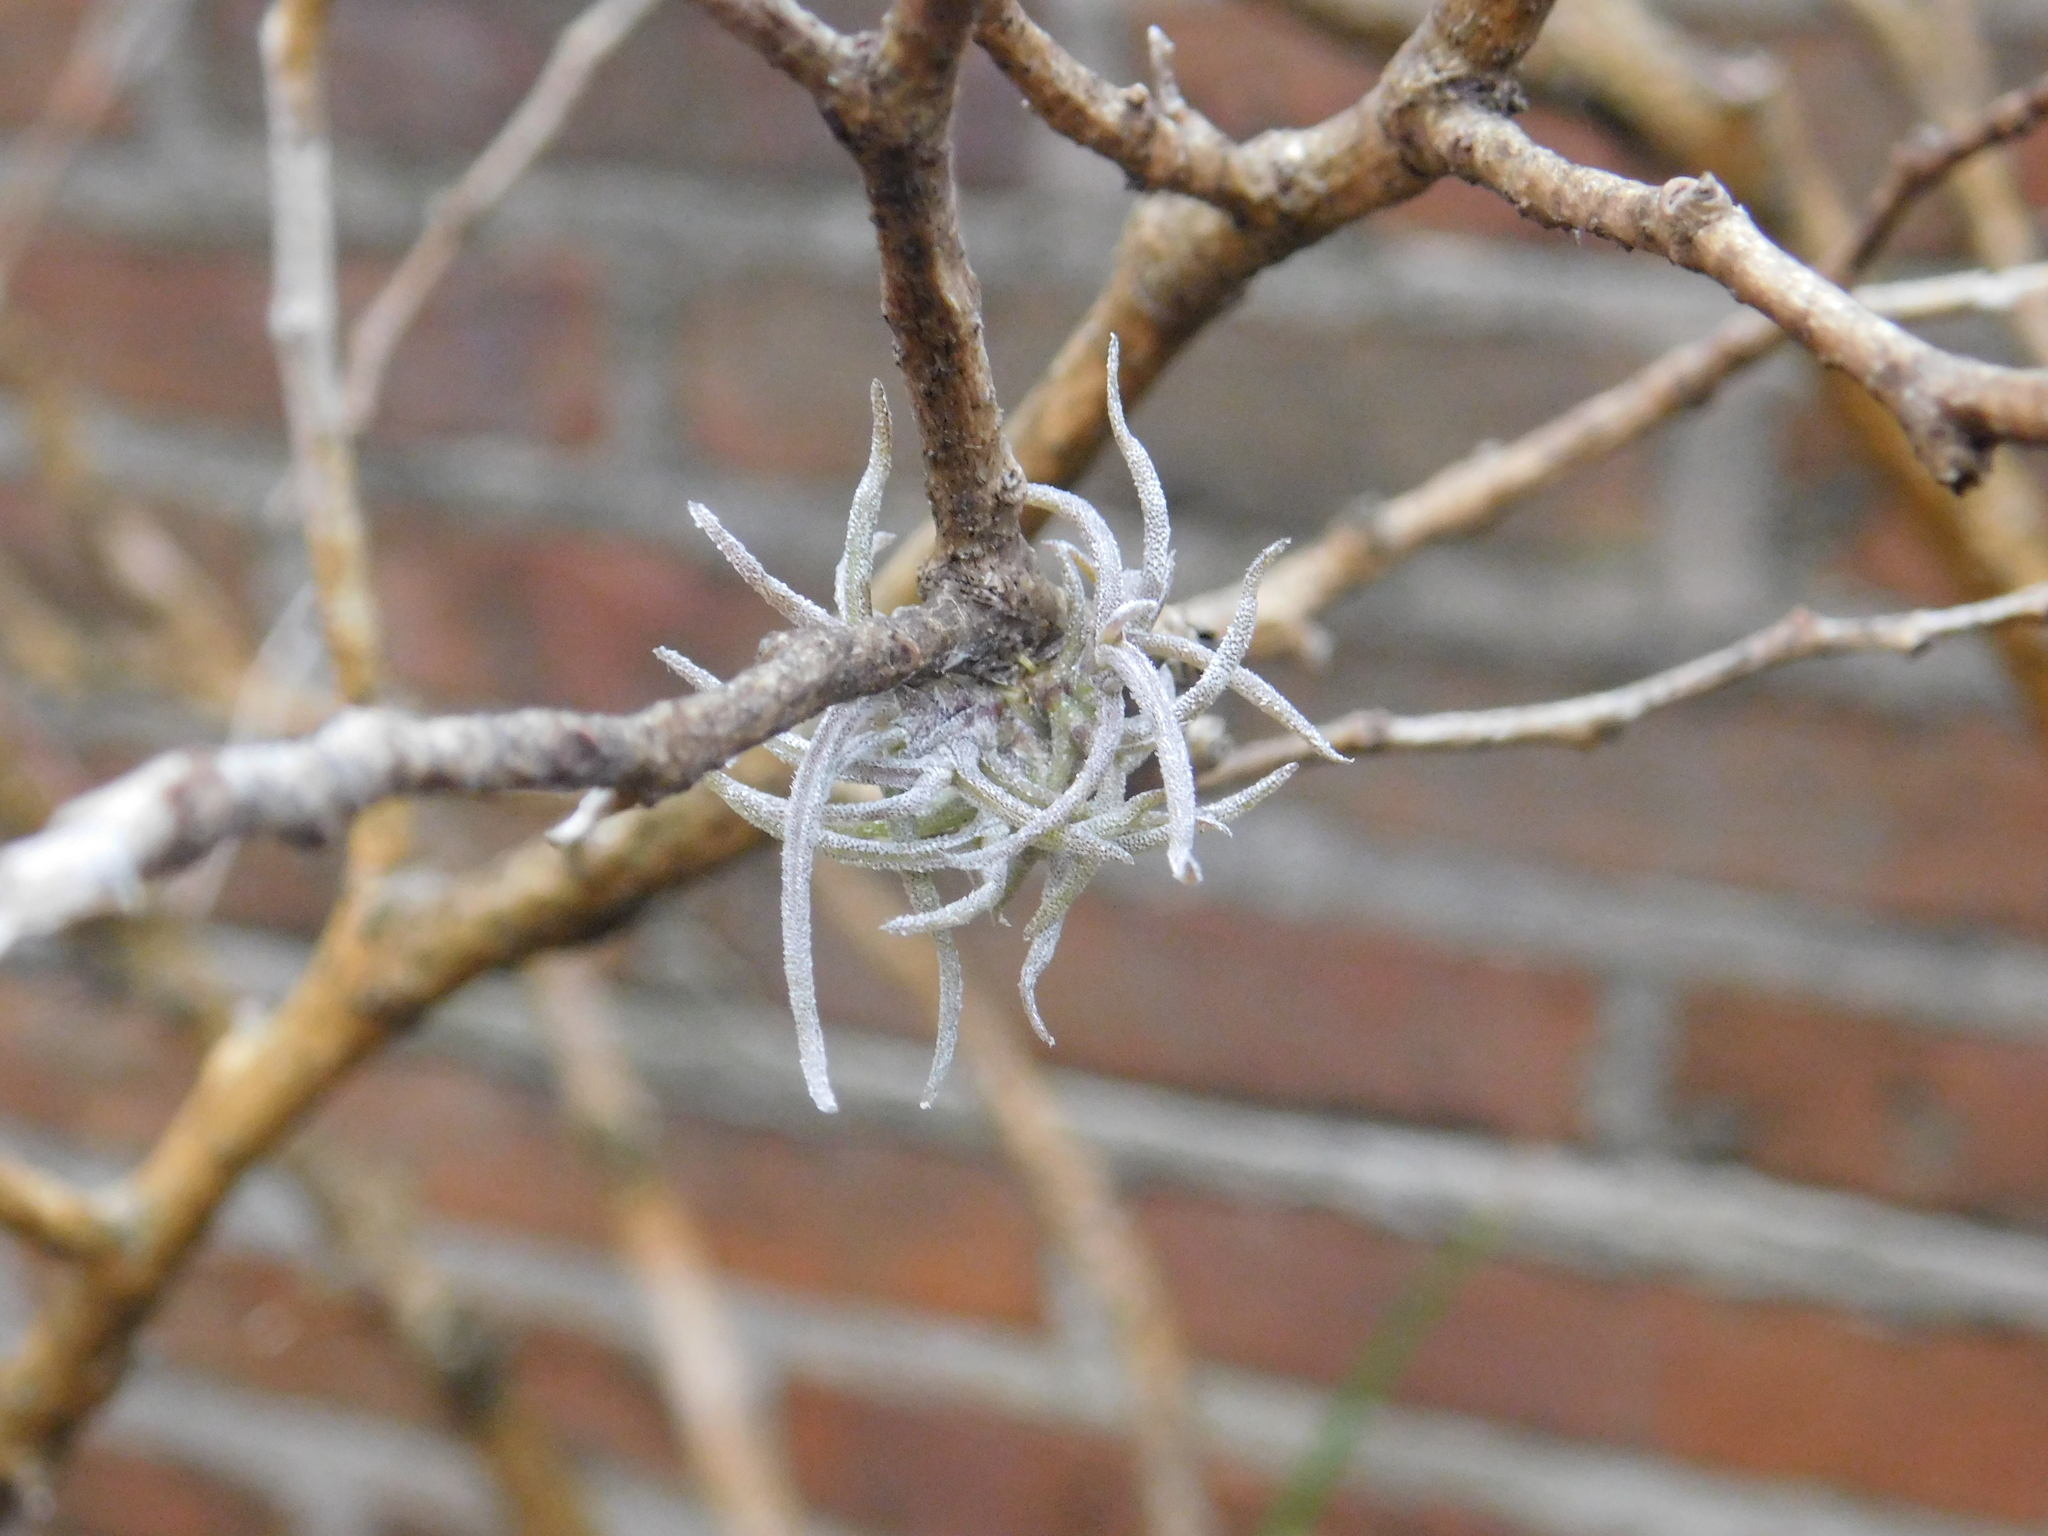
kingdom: Plantae
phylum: Tracheophyta
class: Liliopsida
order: Poales
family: Bromeliaceae
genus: Tillandsia
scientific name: Tillandsia recurvata
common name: Small ballmoss
